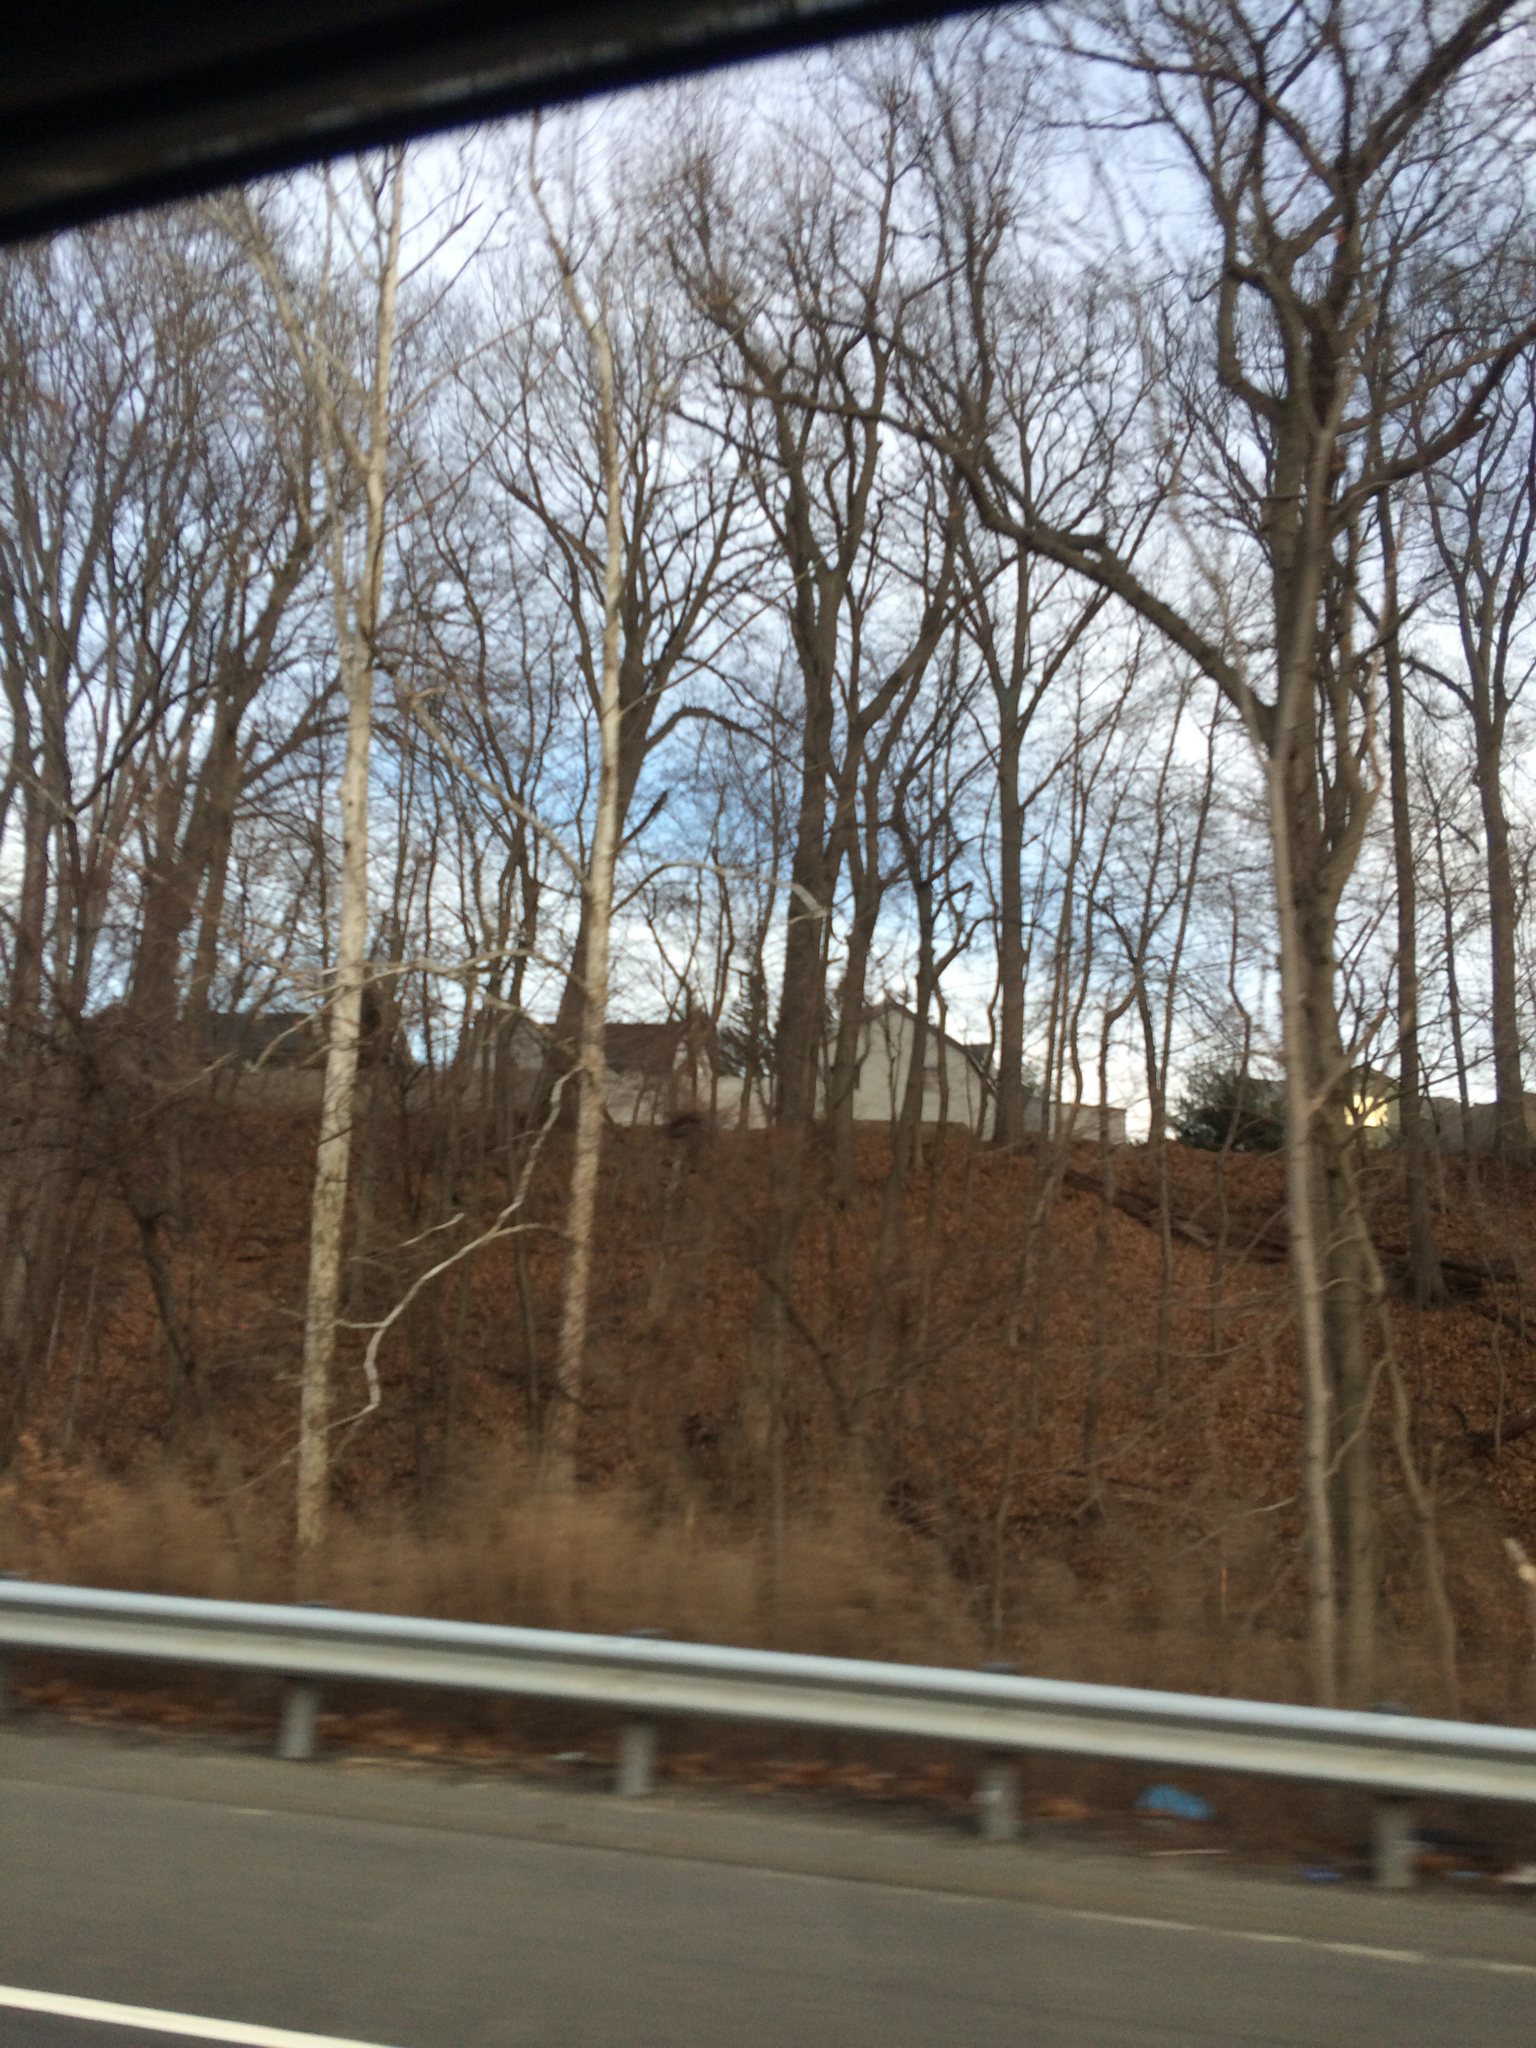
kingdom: Plantae
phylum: Tracheophyta
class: Magnoliopsida
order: Proteales
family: Platanaceae
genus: Platanus
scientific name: Platanus occidentalis
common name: American sycamore
